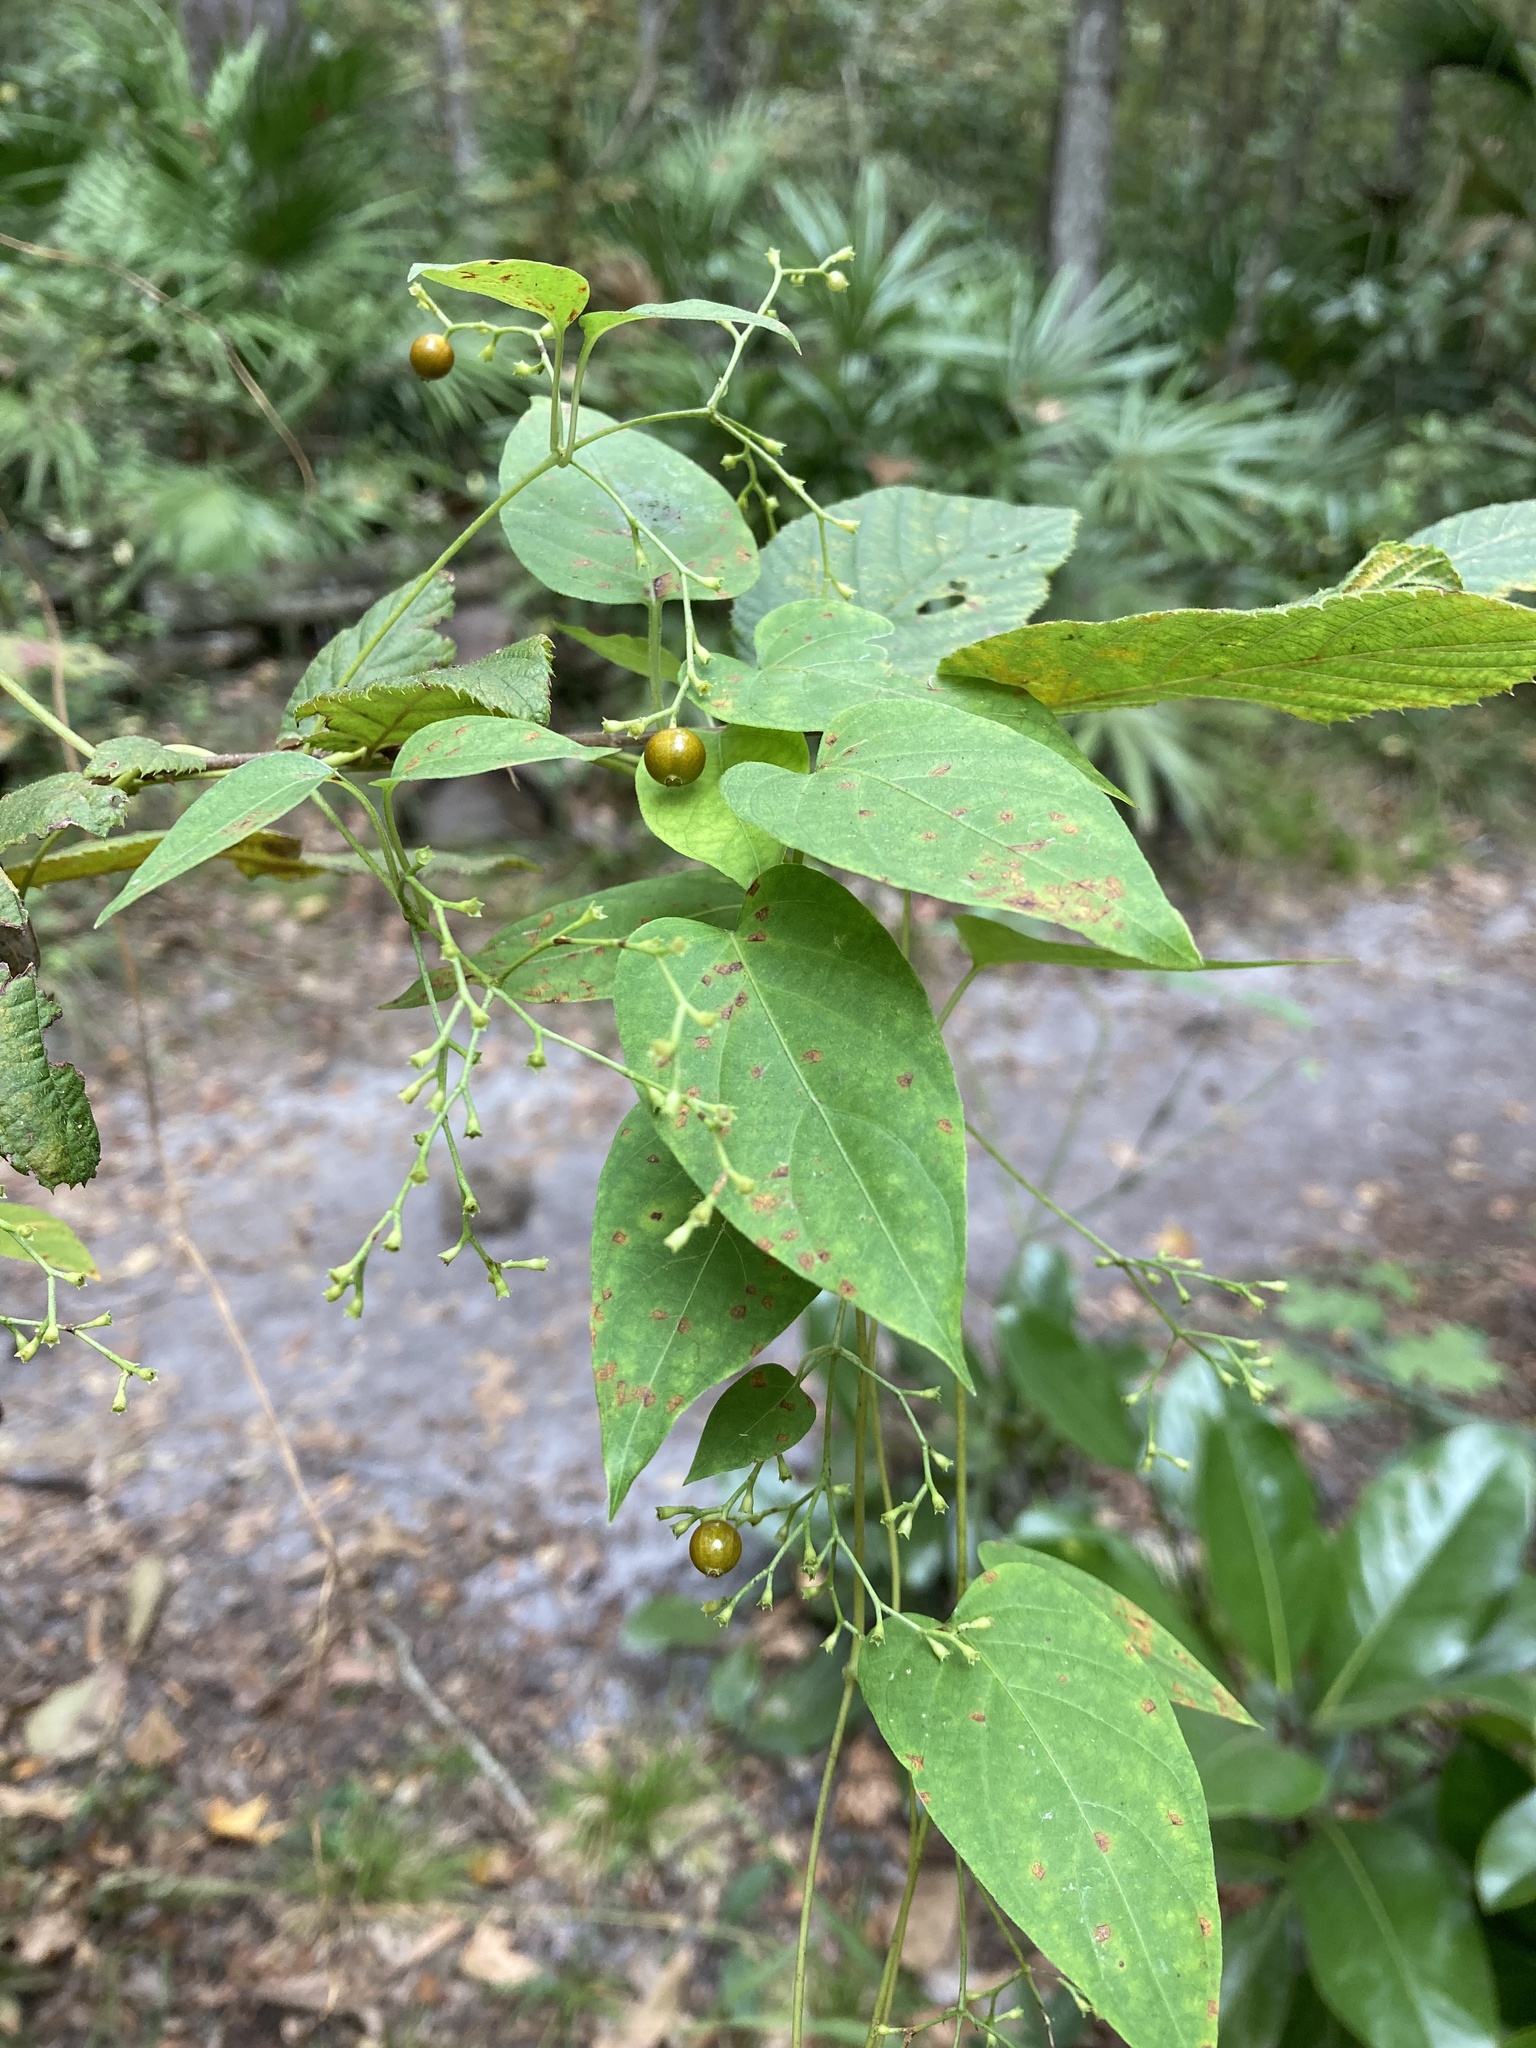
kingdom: Plantae
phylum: Tracheophyta
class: Magnoliopsida
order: Gentianales
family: Rubiaceae
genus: Paederia
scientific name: Paederia foetida
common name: Stinkvine
